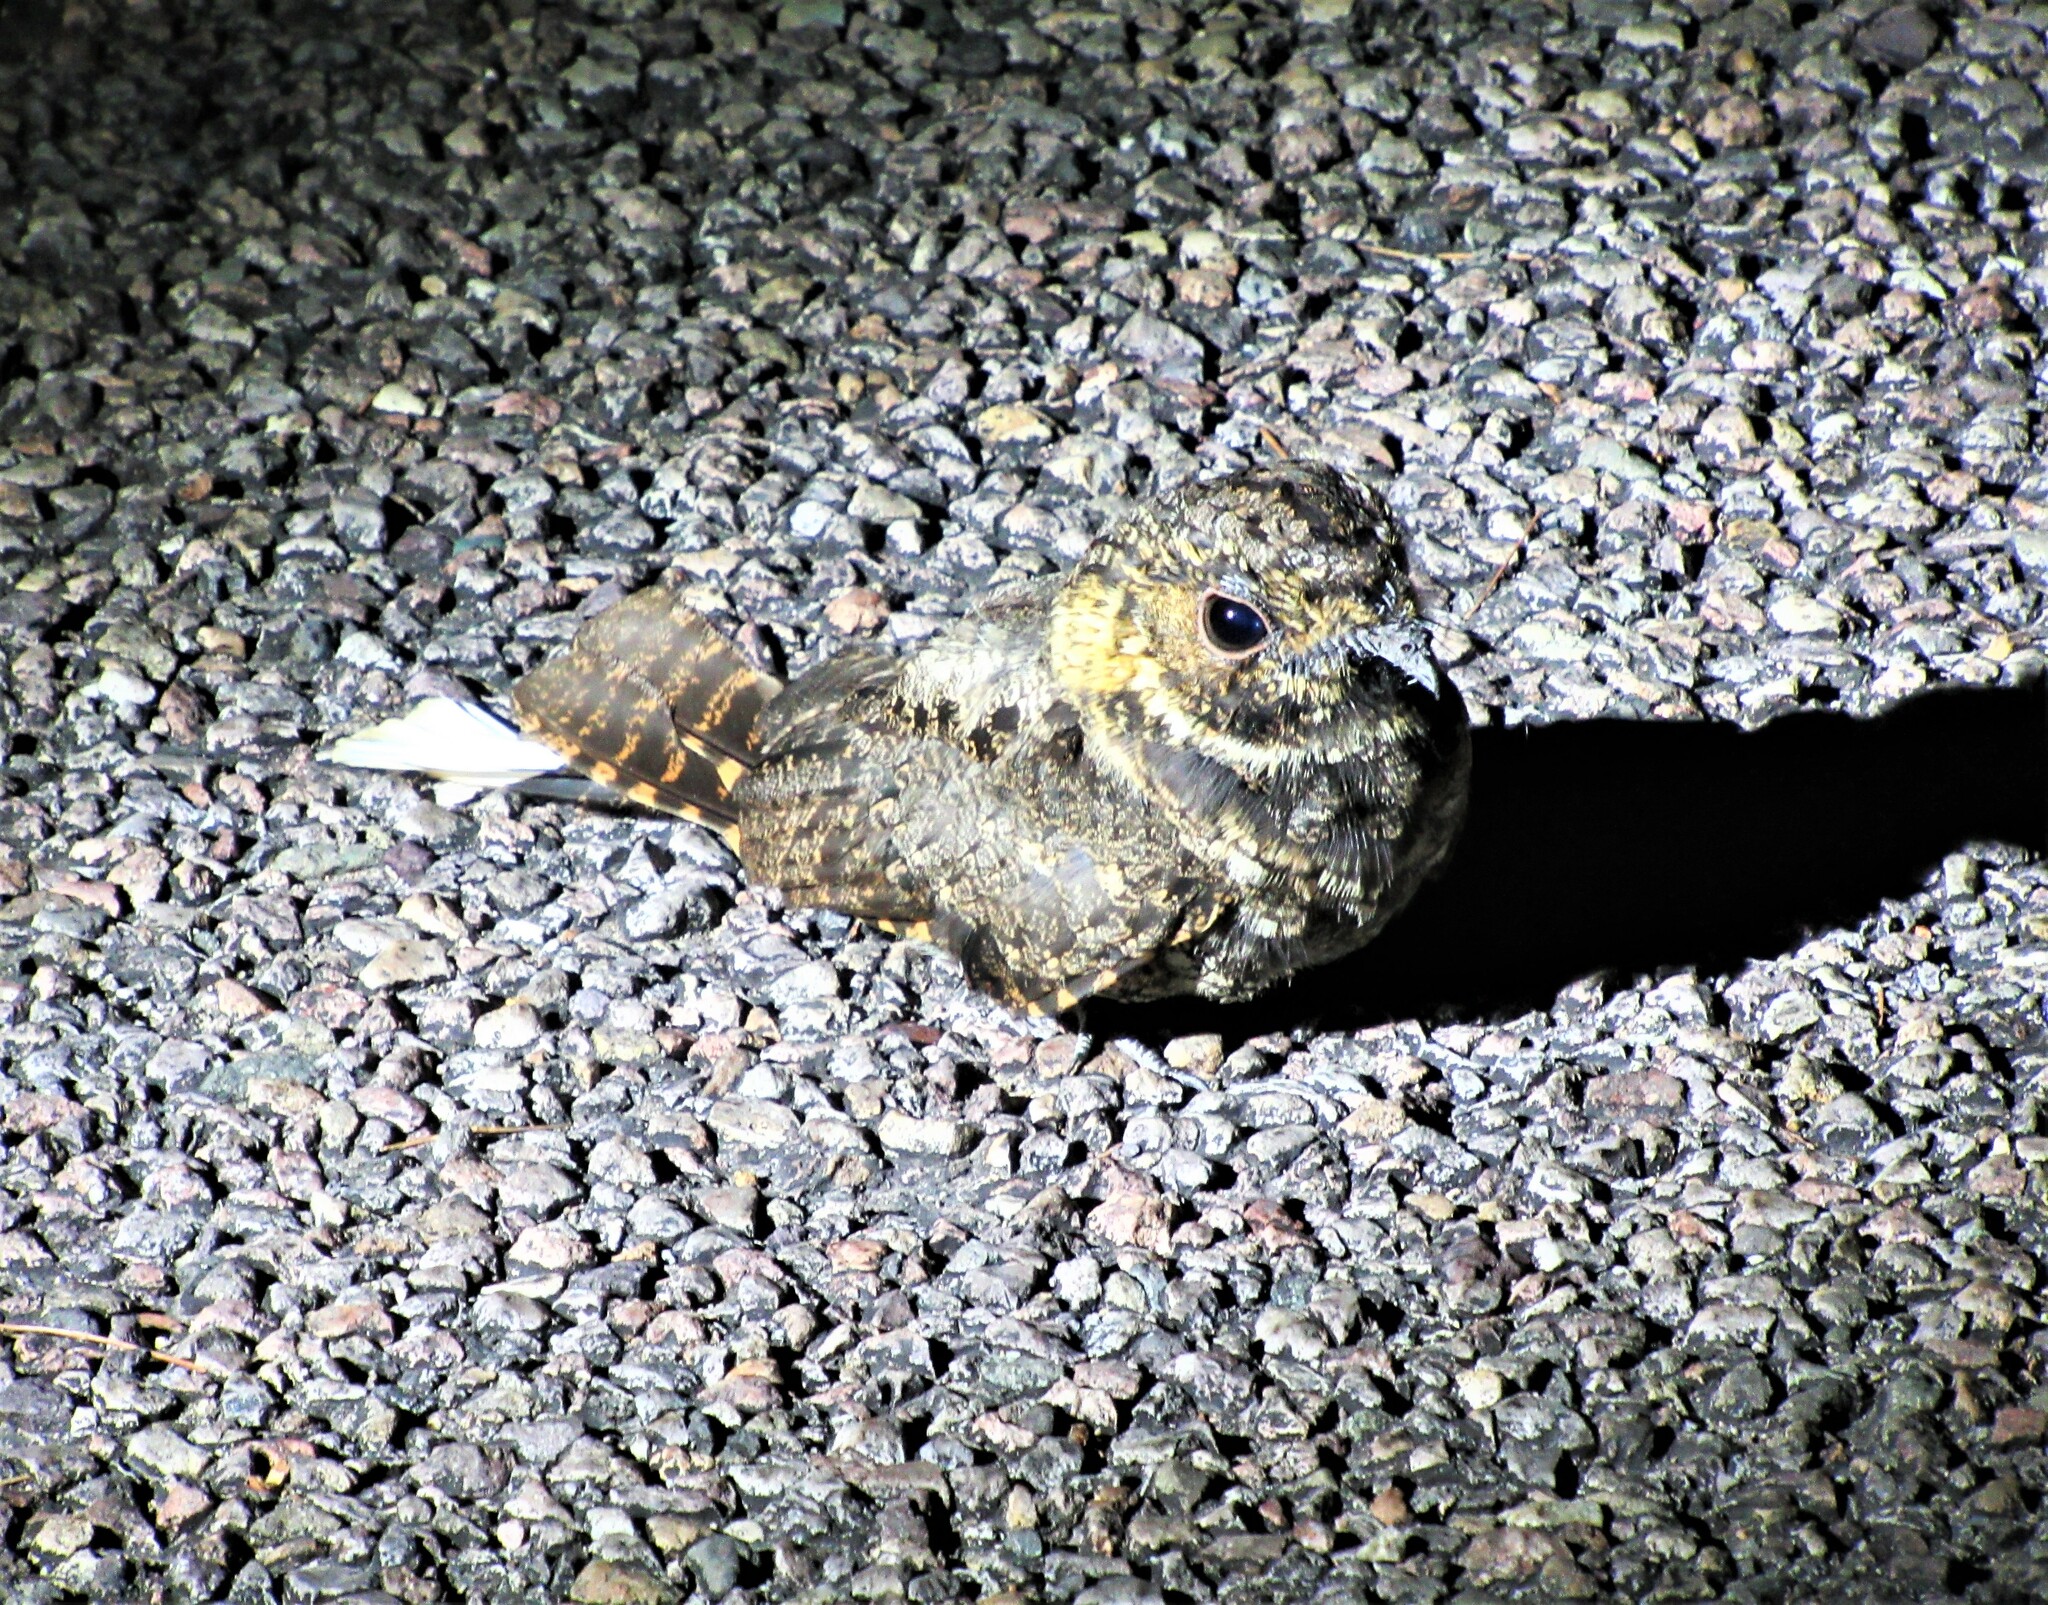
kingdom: Animalia
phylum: Chordata
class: Aves
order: Caprimulgiformes
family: Caprimulgidae
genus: Antrostomus
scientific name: Antrostomus arizonae
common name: Mexican whip-poor-will
